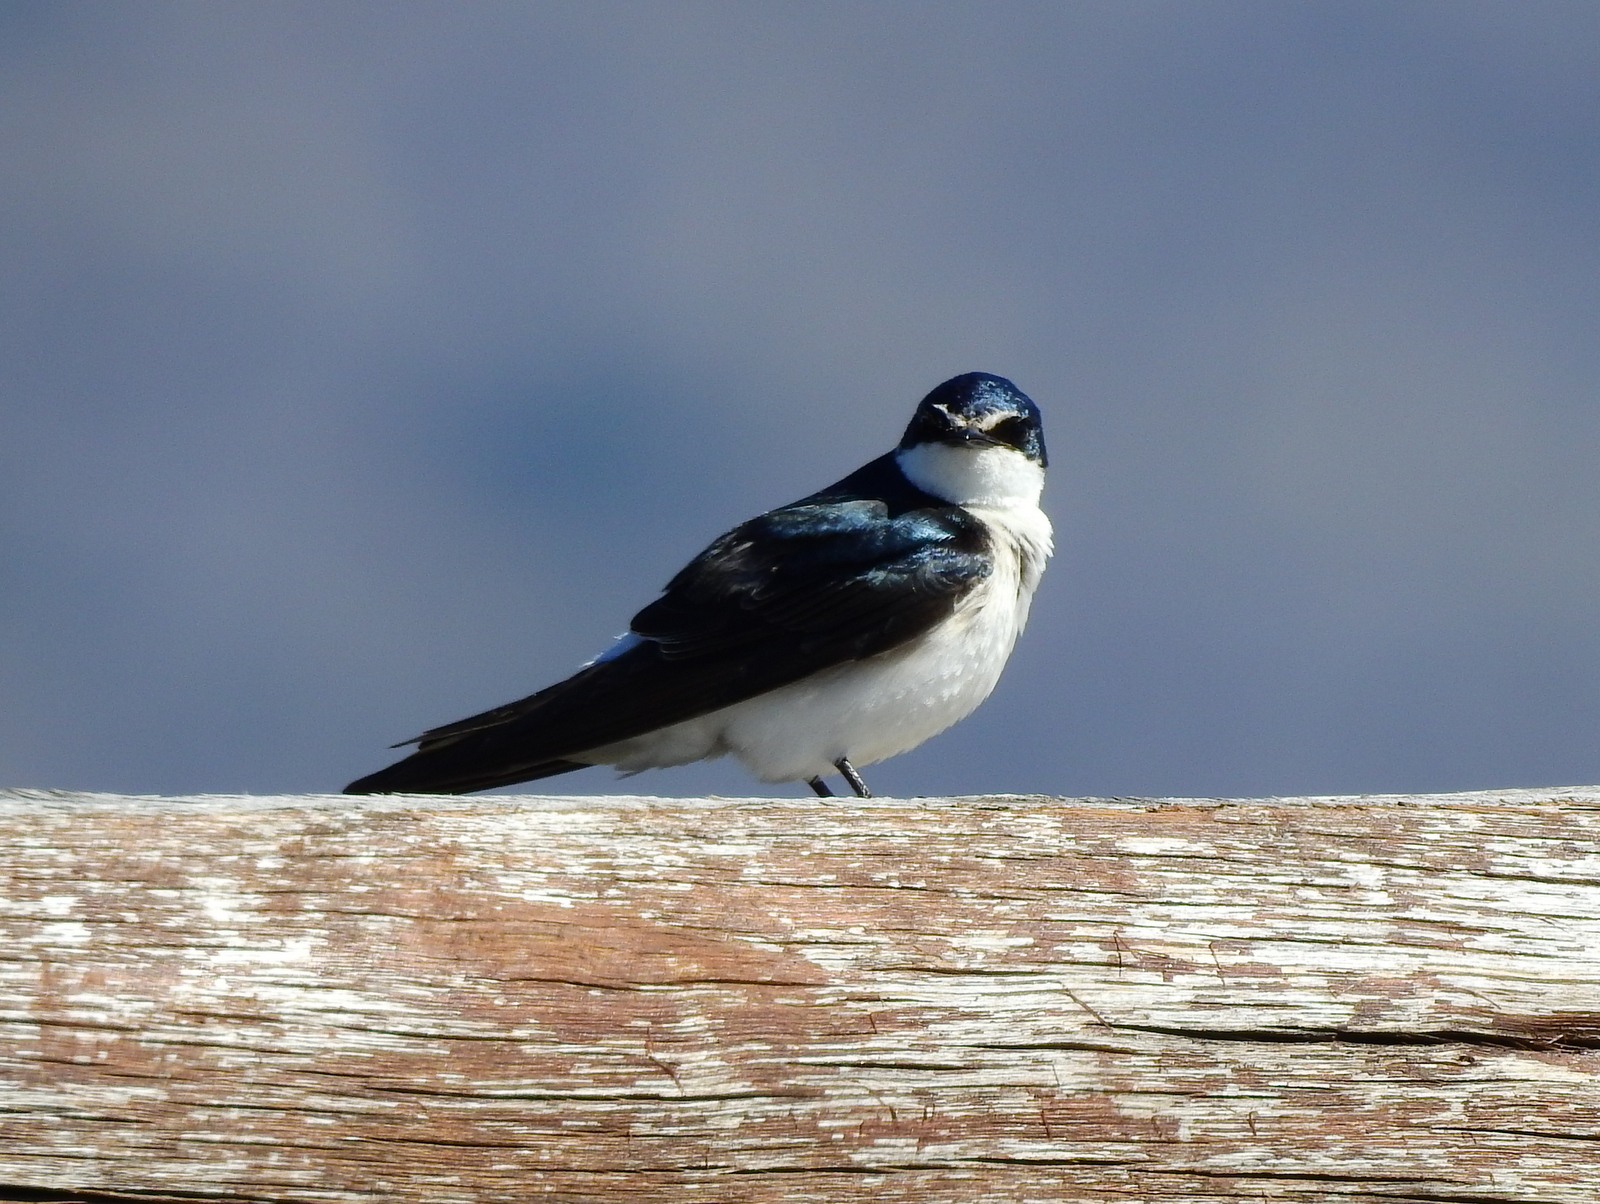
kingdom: Animalia
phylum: Chordata
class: Aves
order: Passeriformes
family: Hirundinidae
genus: Tachycineta
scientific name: Tachycineta leucorrhoa
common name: White-rumped swallow
